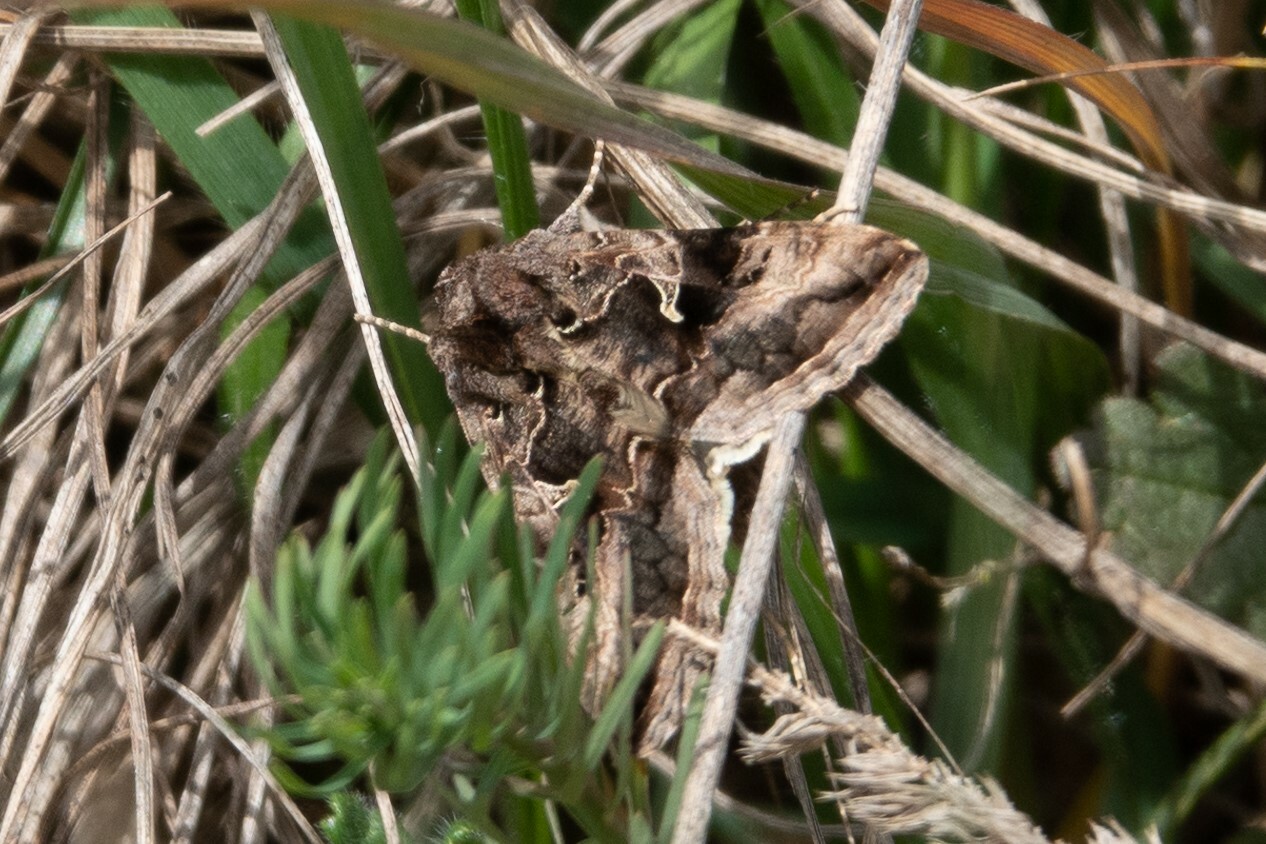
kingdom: Animalia
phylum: Arthropoda
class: Insecta
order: Lepidoptera
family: Noctuidae
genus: Autographa
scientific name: Autographa gamma
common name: Silver y
